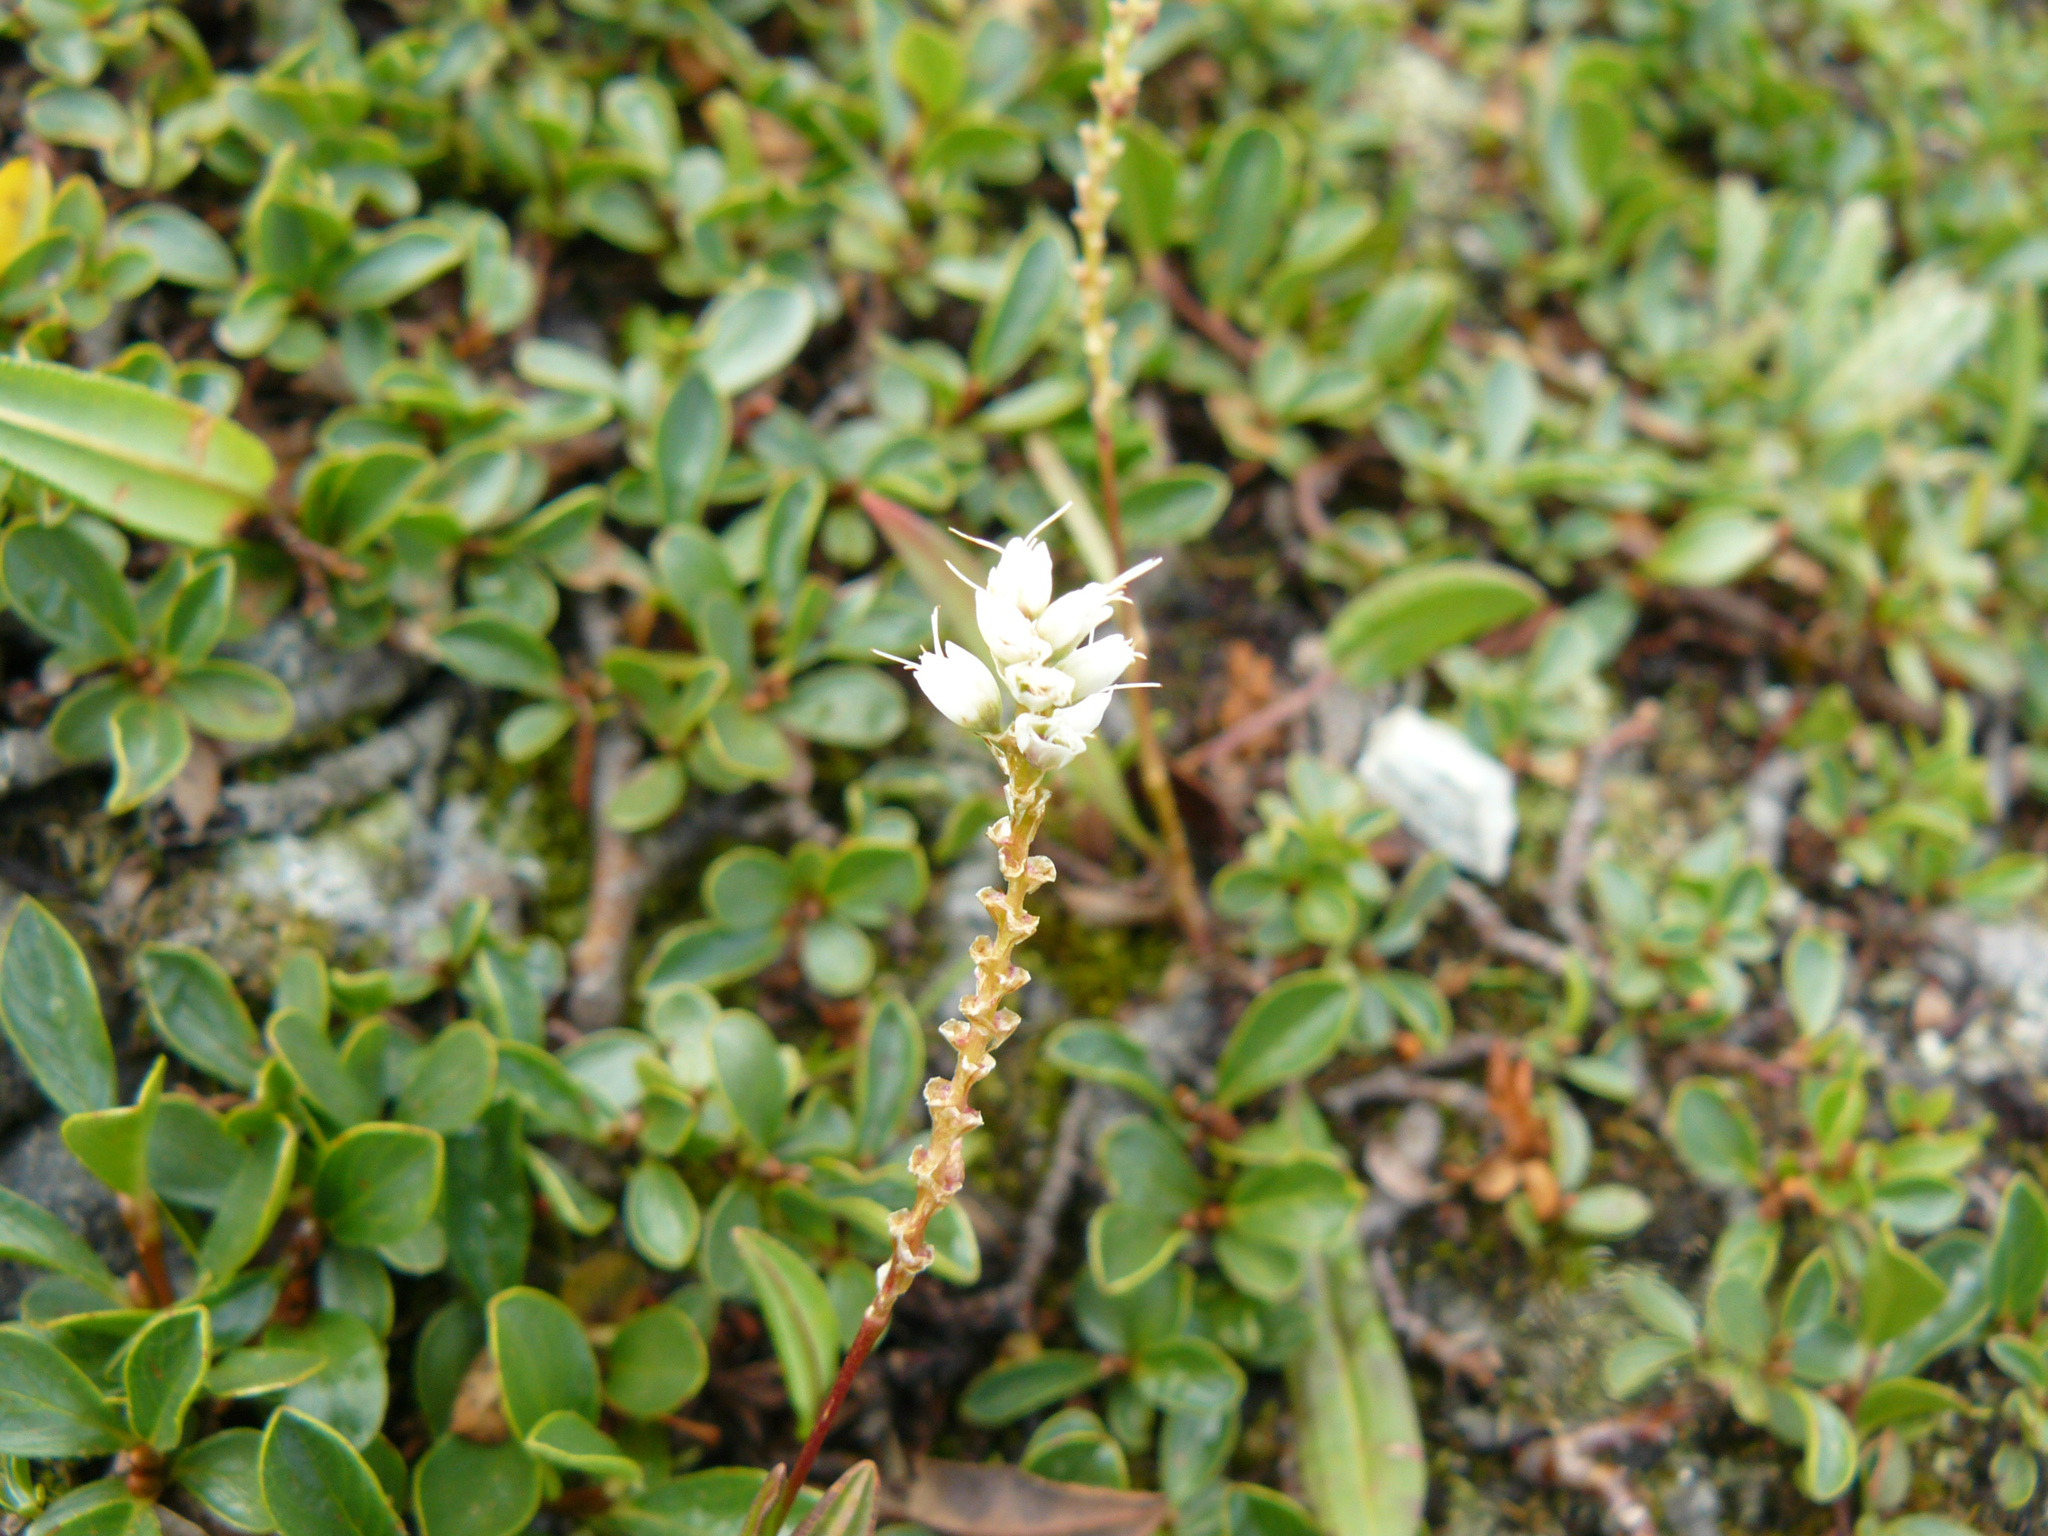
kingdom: Plantae
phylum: Tracheophyta
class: Magnoliopsida
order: Caryophyllales
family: Polygonaceae
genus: Bistorta
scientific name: Bistorta vivipara
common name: Alpine bistort
